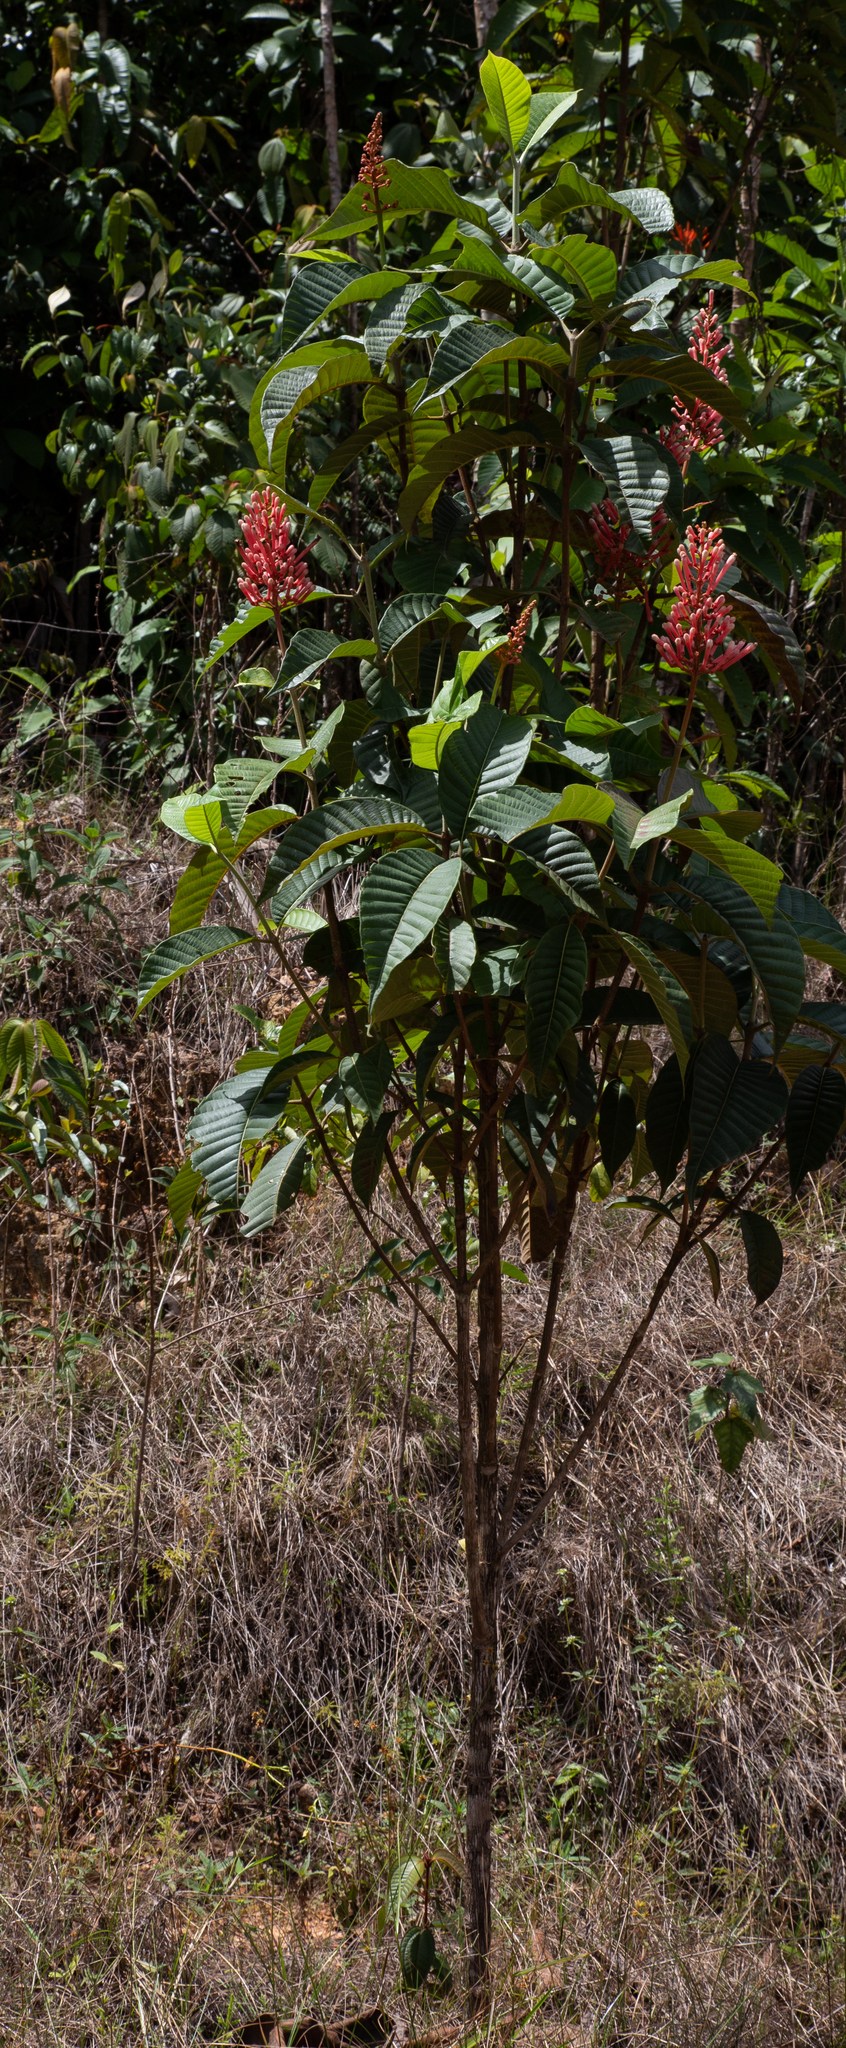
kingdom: Plantae
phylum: Tracheophyta
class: Magnoliopsida
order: Gentianales
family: Rubiaceae
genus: Isertia
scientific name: Isertia spiciformis
